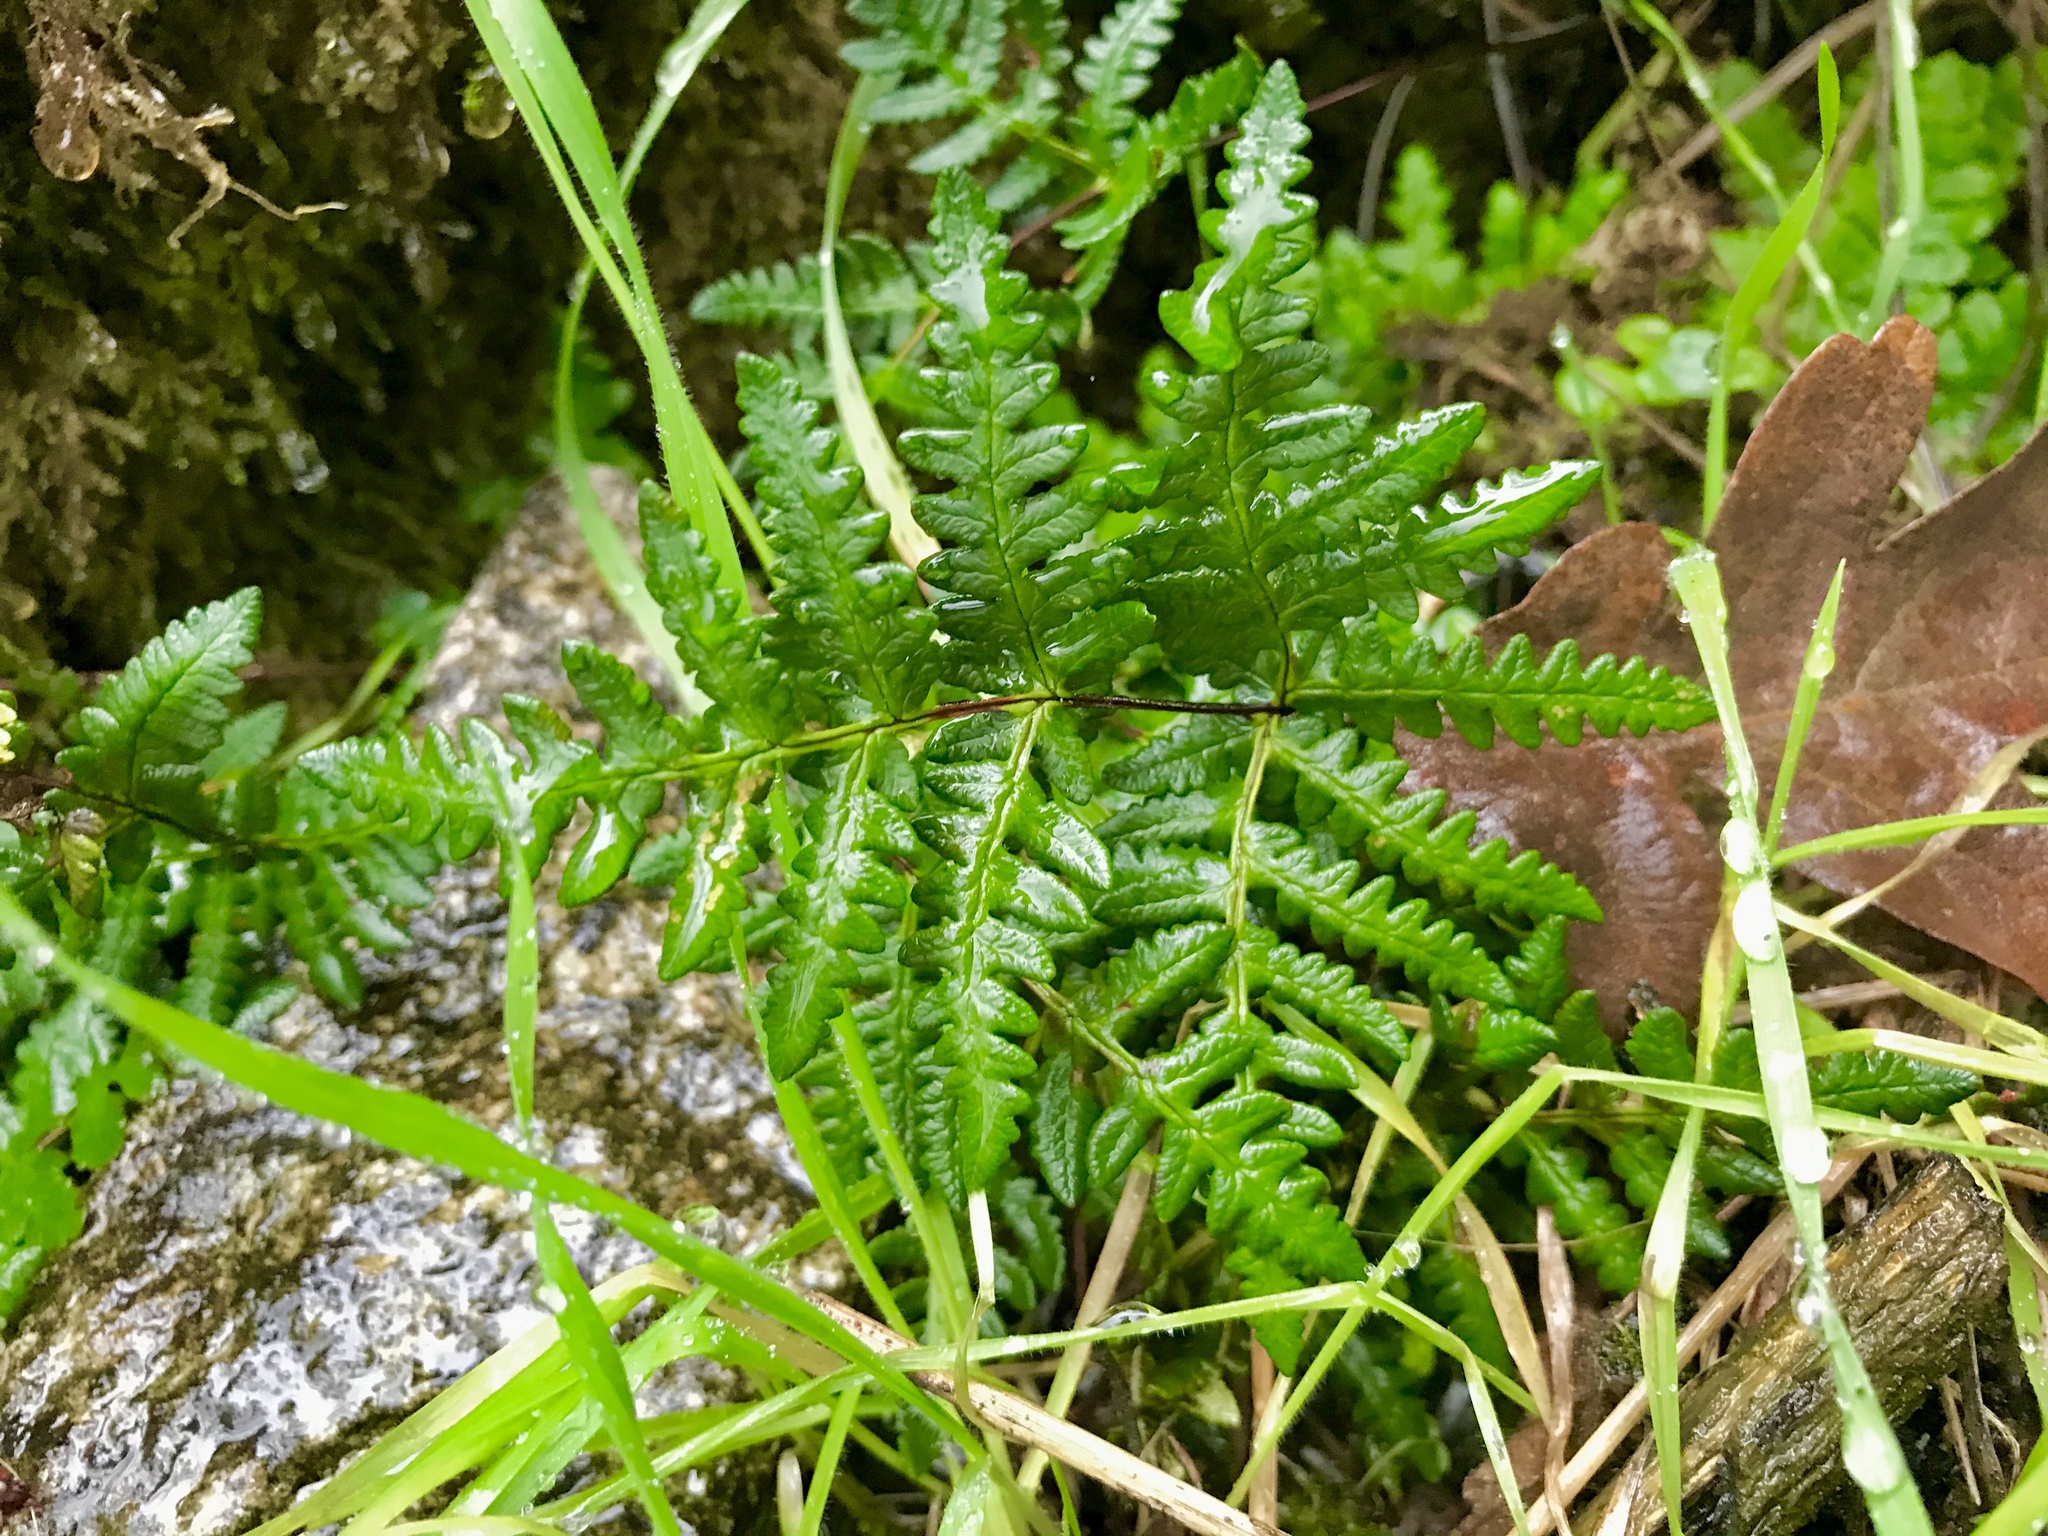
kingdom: Plantae
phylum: Tracheophyta
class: Polypodiopsida
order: Polypodiales
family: Pteridaceae
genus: Pentagramma
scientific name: Pentagramma triangularis
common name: Gold fern
